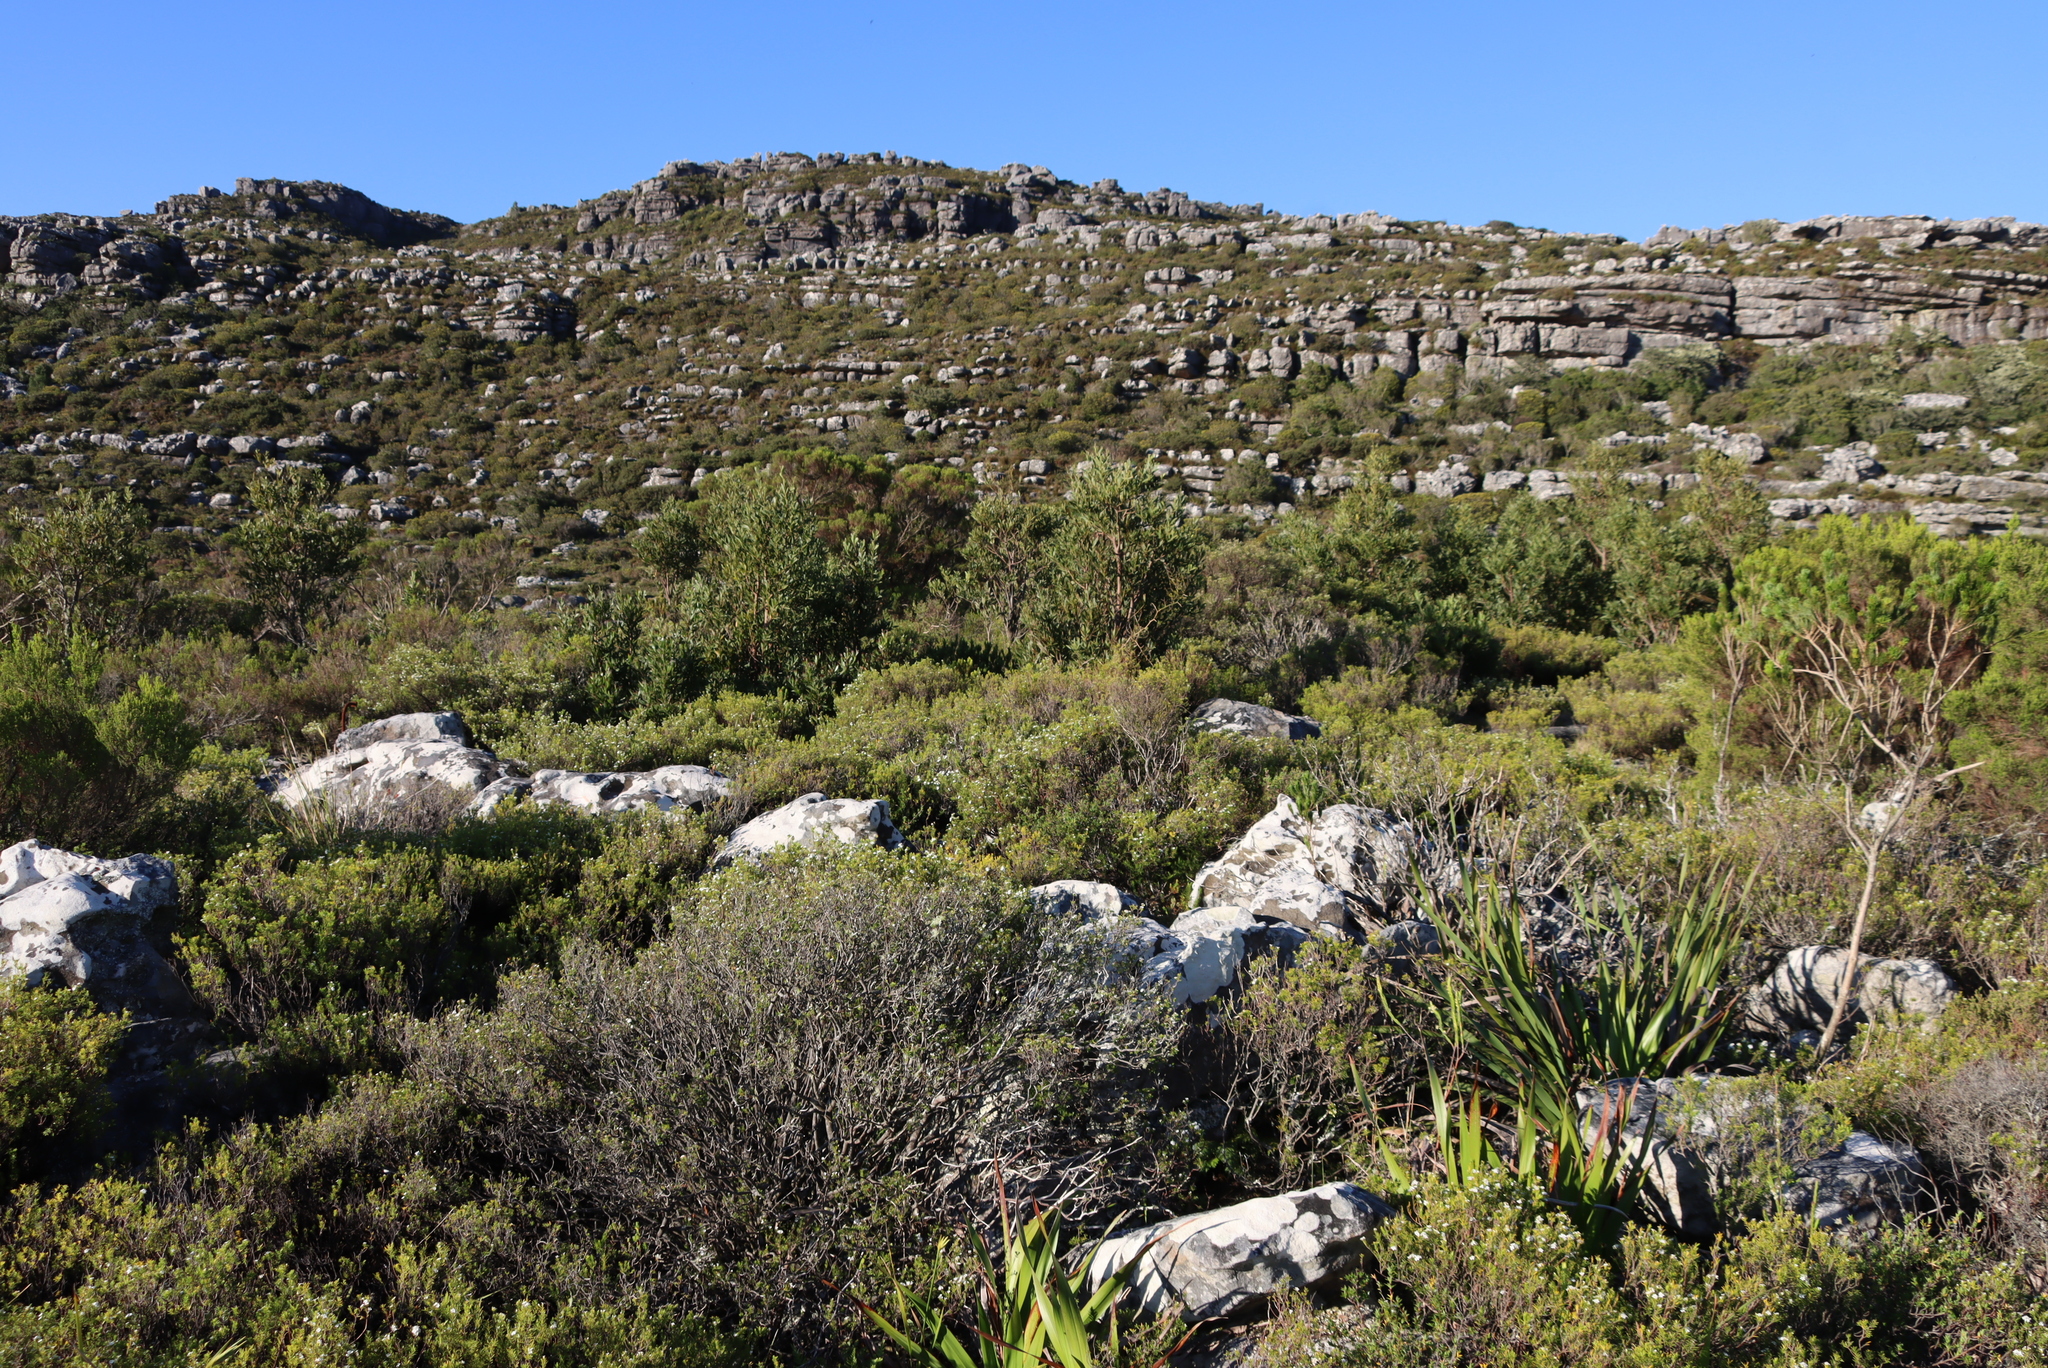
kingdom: Plantae
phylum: Tracheophyta
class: Magnoliopsida
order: Fabales
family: Fabaceae
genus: Acacia
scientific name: Acacia melanoxylon
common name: Blackwood
